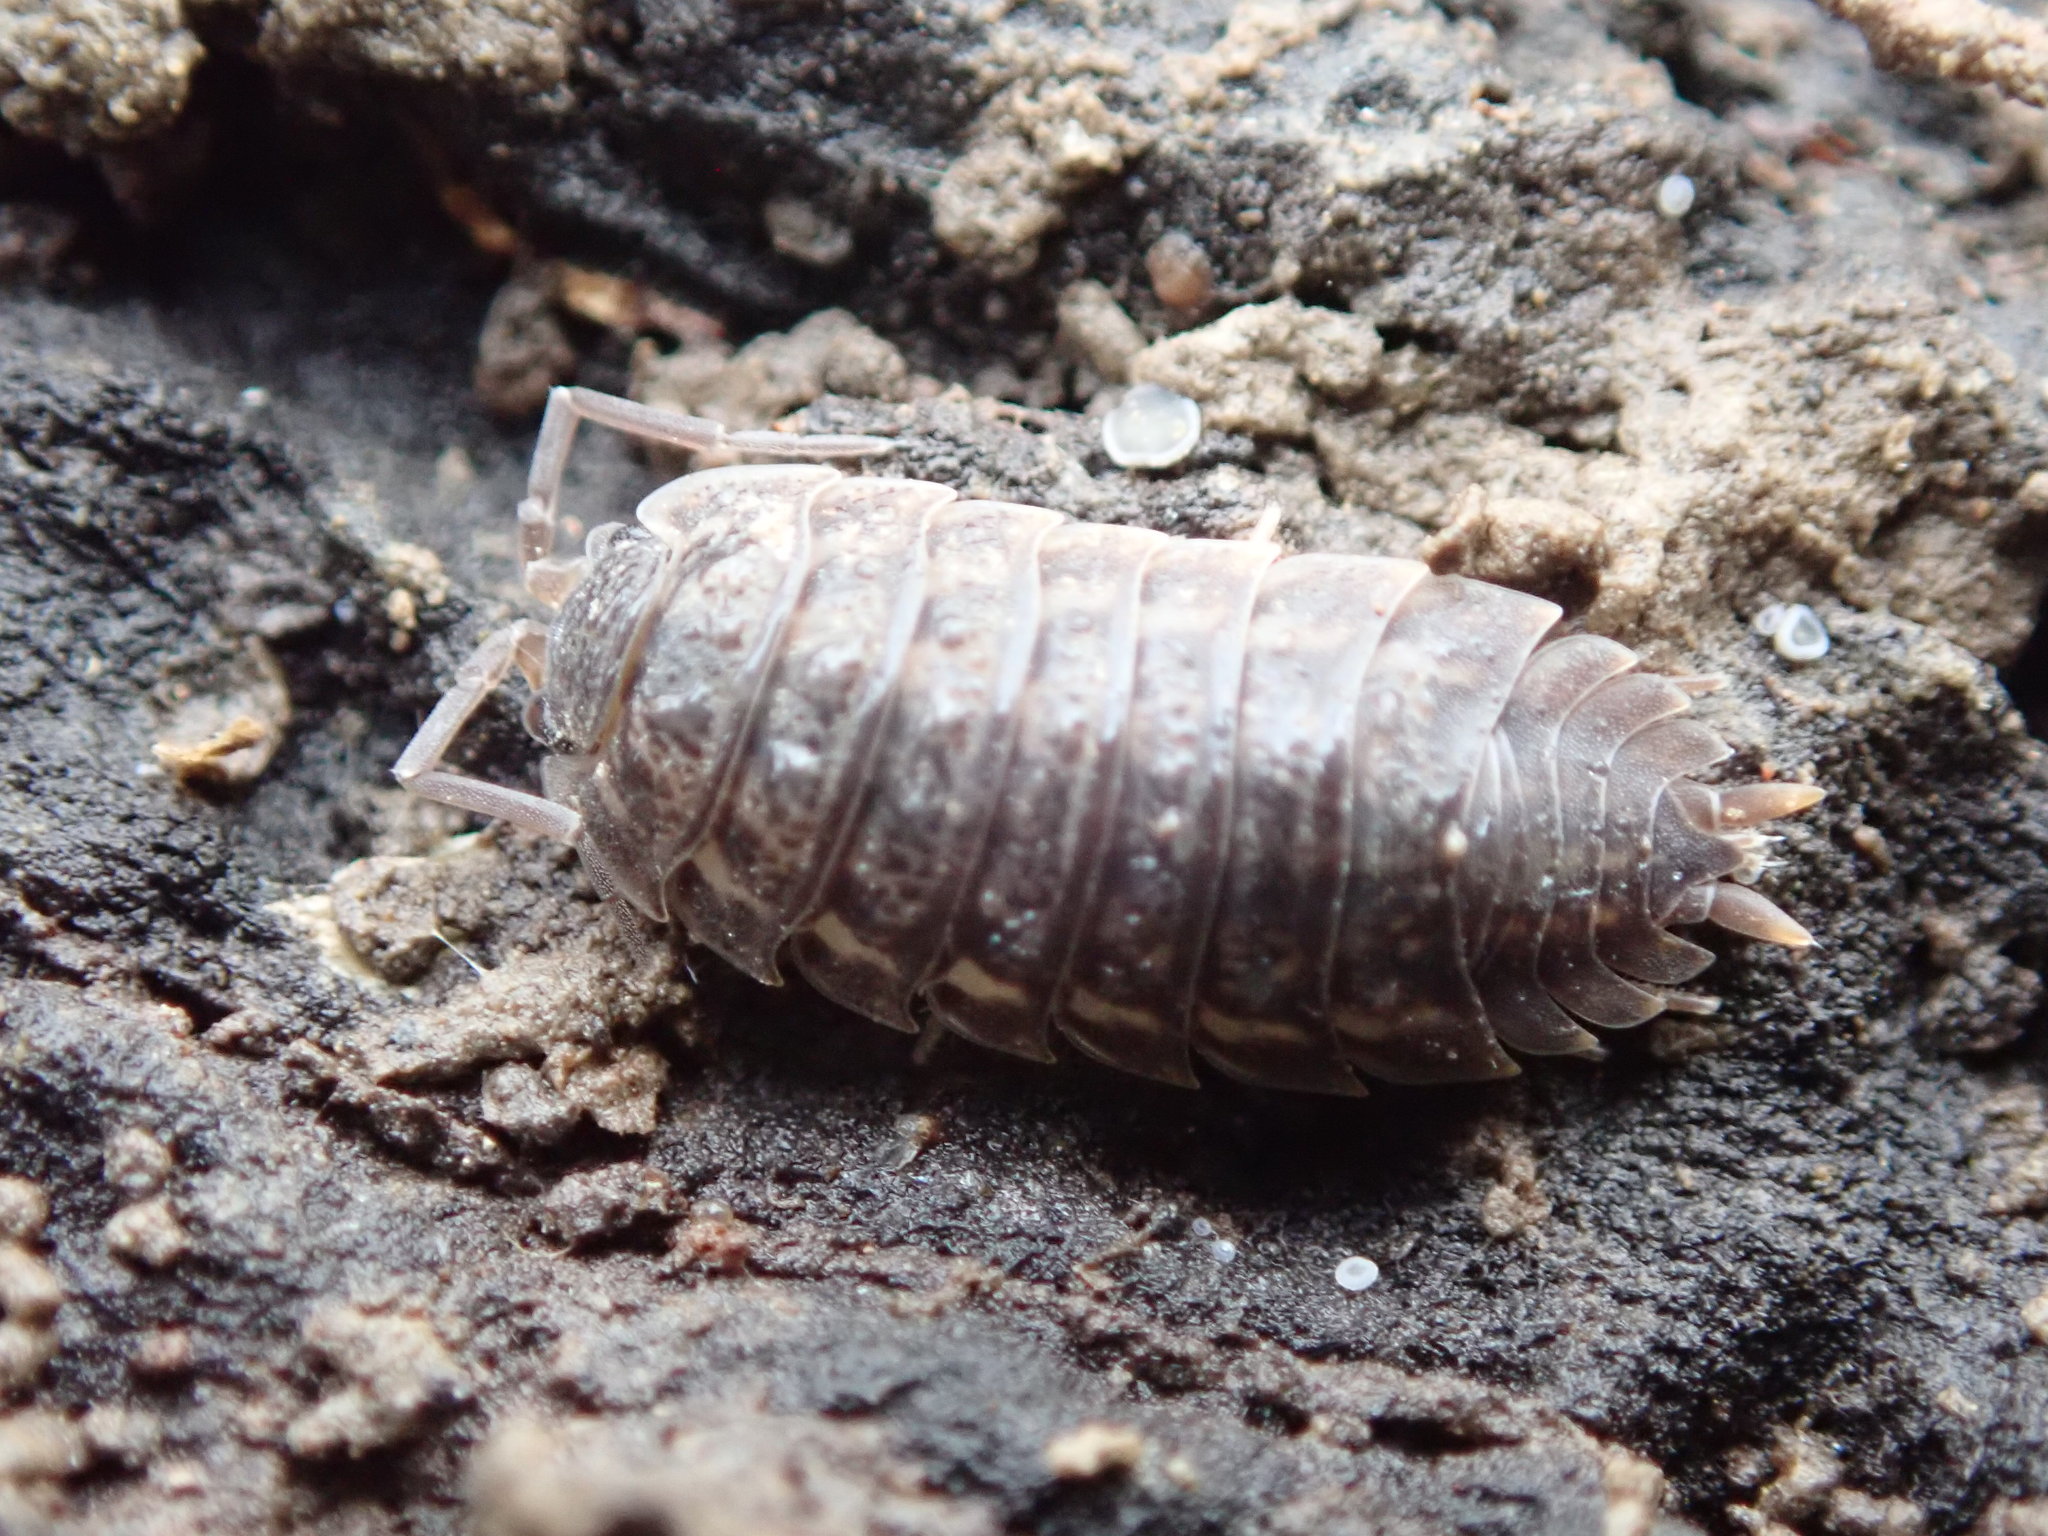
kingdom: Animalia
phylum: Arthropoda
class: Malacostraca
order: Isopoda
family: Trachelipodidae
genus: Trachelipus
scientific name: Trachelipus rathkii
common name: Isopod
